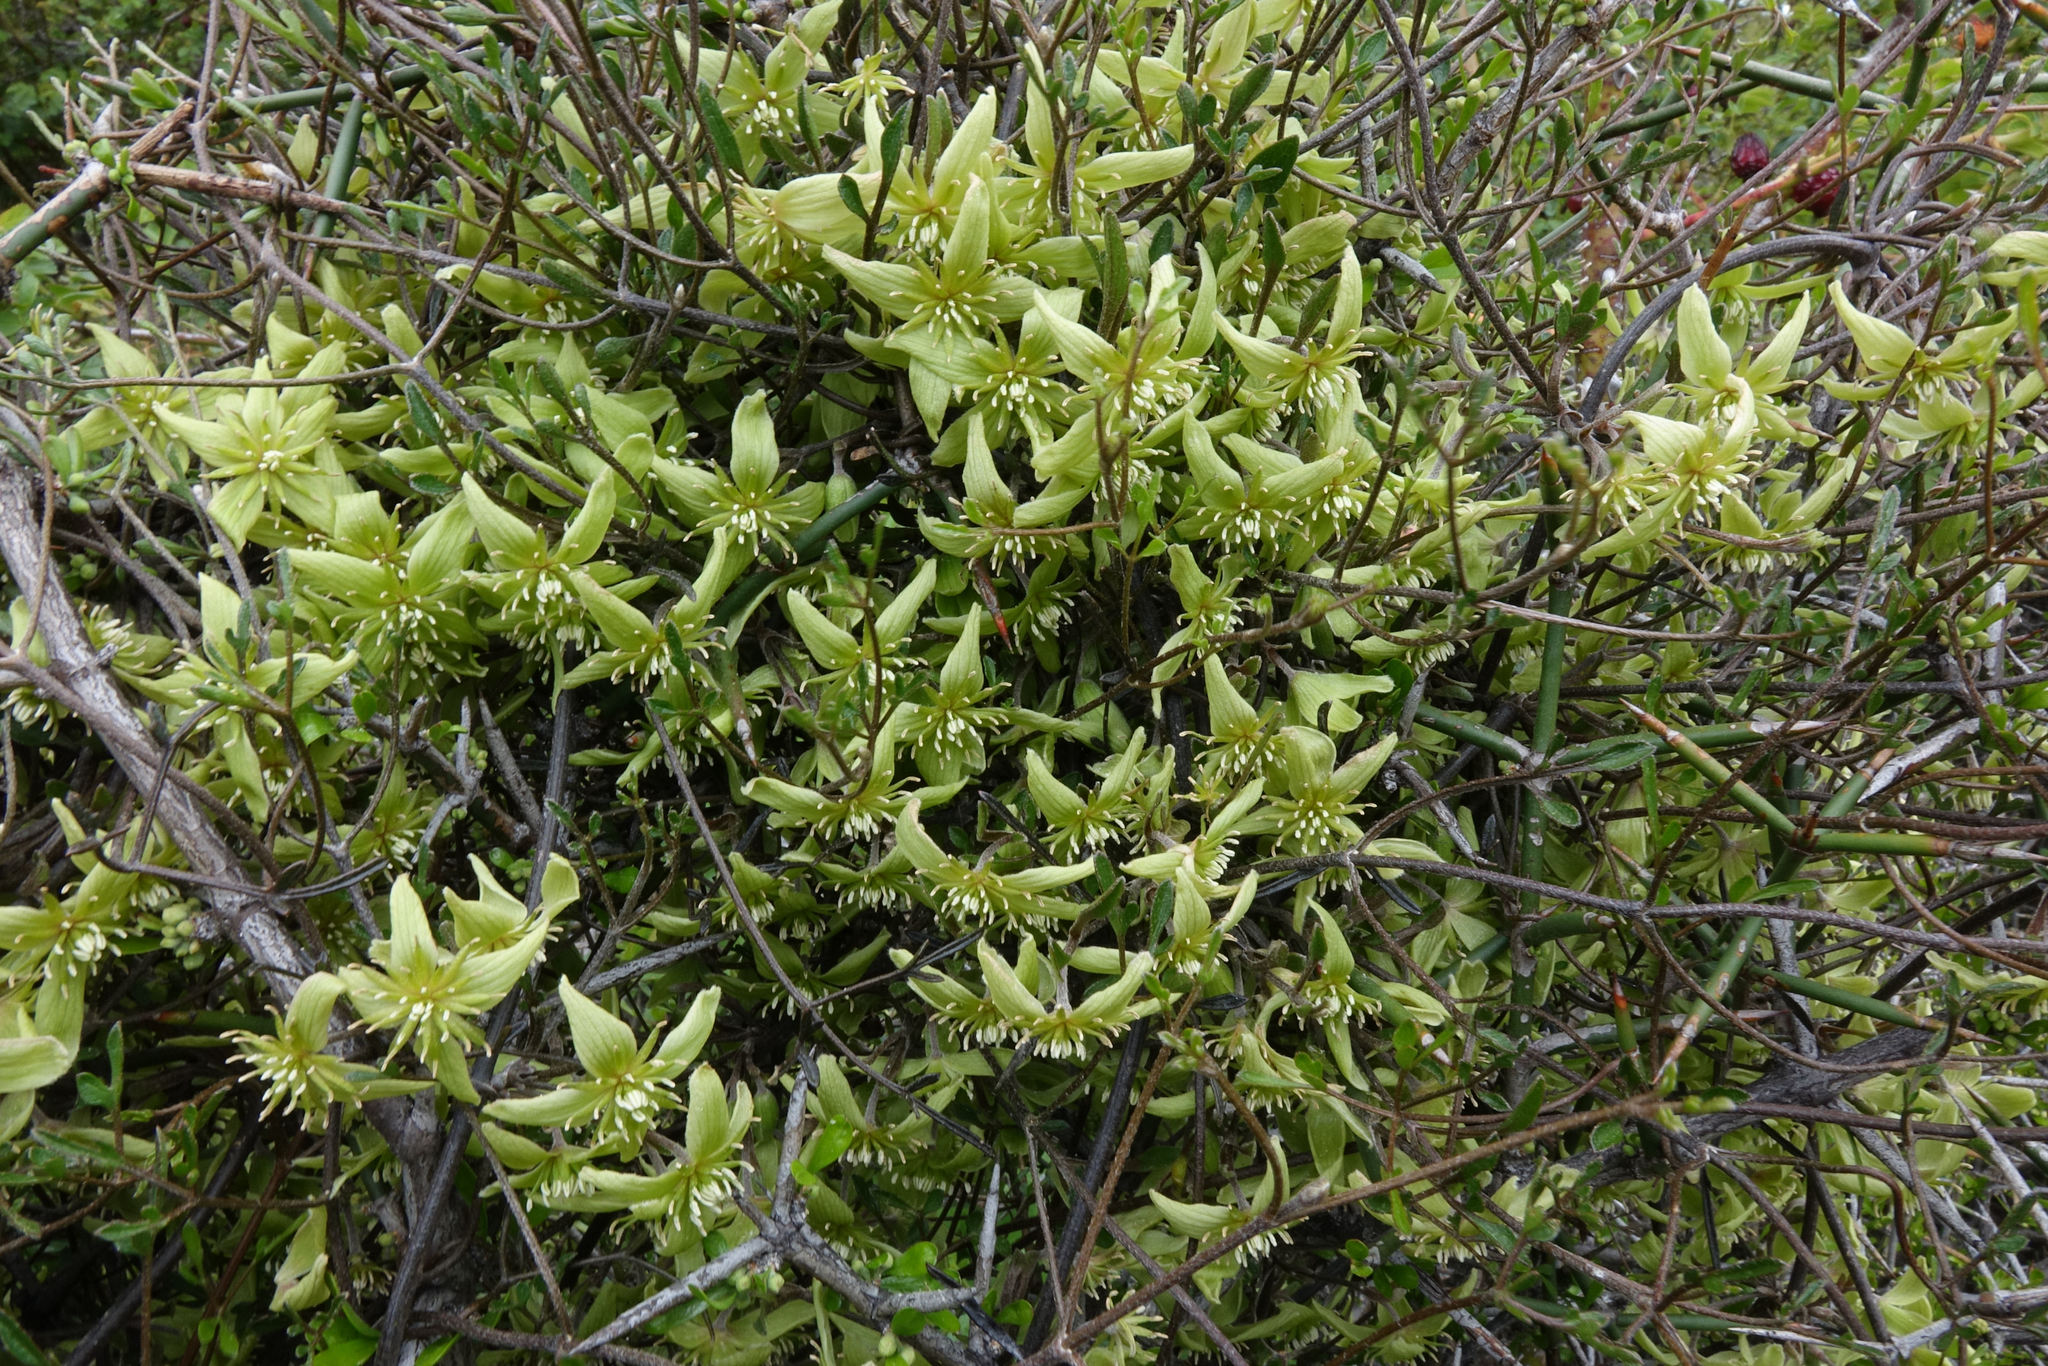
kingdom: Plantae
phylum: Tracheophyta
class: Magnoliopsida
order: Ranunculales
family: Ranunculaceae
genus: Clematis
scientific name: Clematis marata
